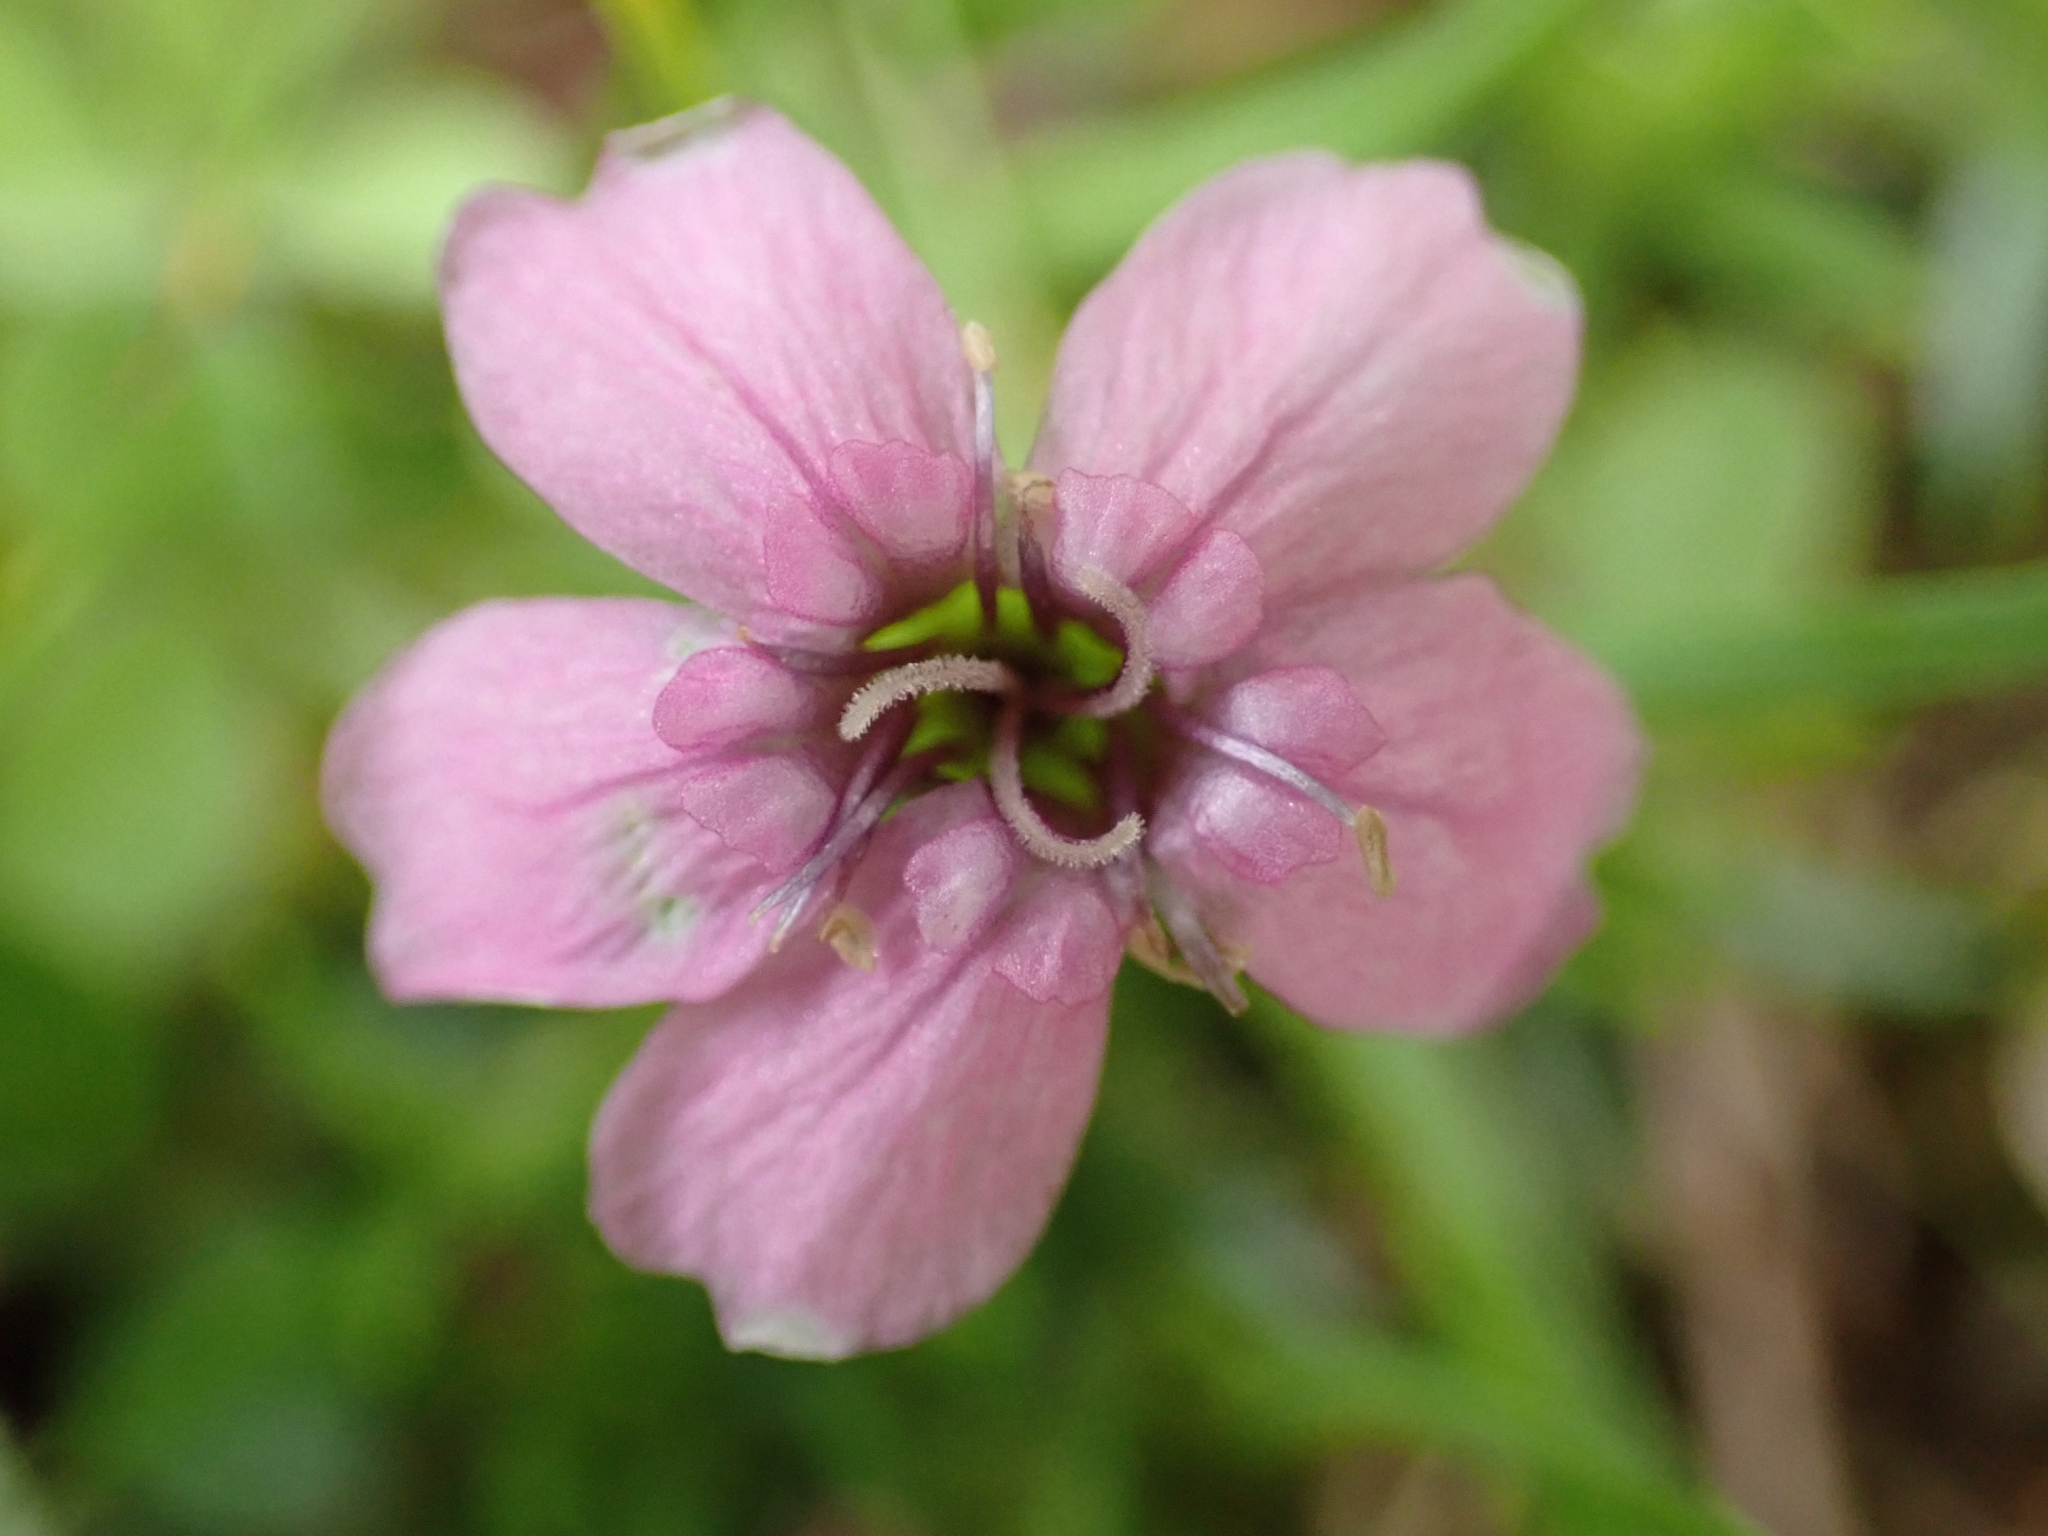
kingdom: Plantae
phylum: Tracheophyta
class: Magnoliopsida
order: Caryophyllales
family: Caryophyllaceae
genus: Silene
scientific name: Silene acaulis
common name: Moss campion
